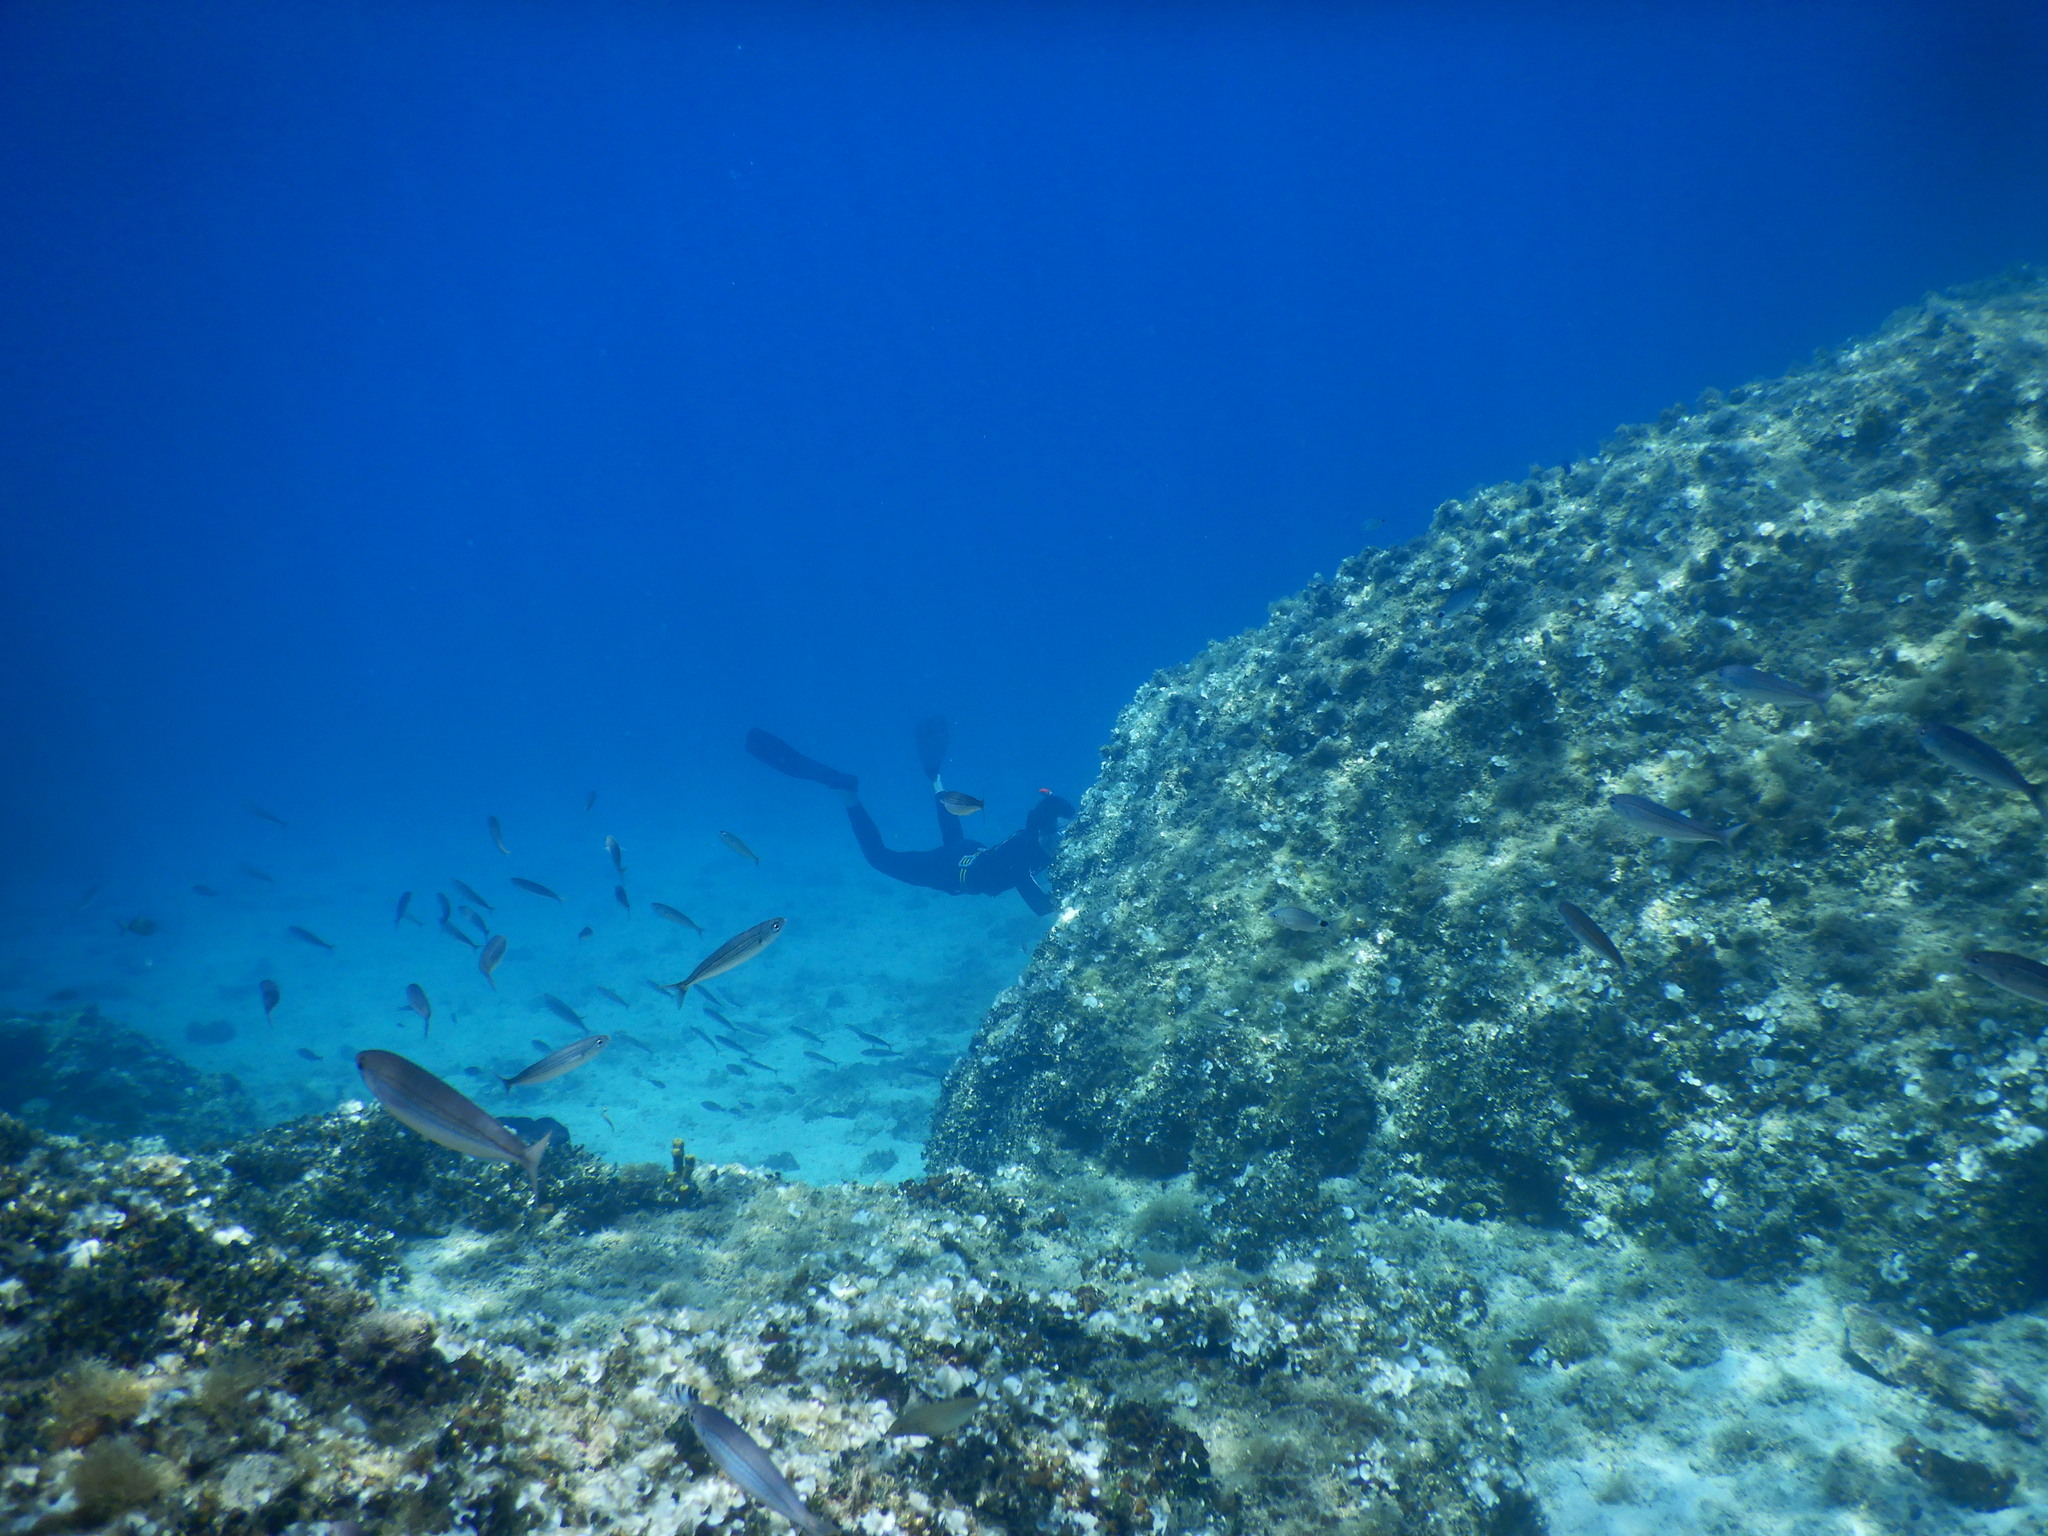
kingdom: Animalia
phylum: Chordata
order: Perciformes
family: Sparidae
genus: Boops
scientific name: Boops boops
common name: Bogue
